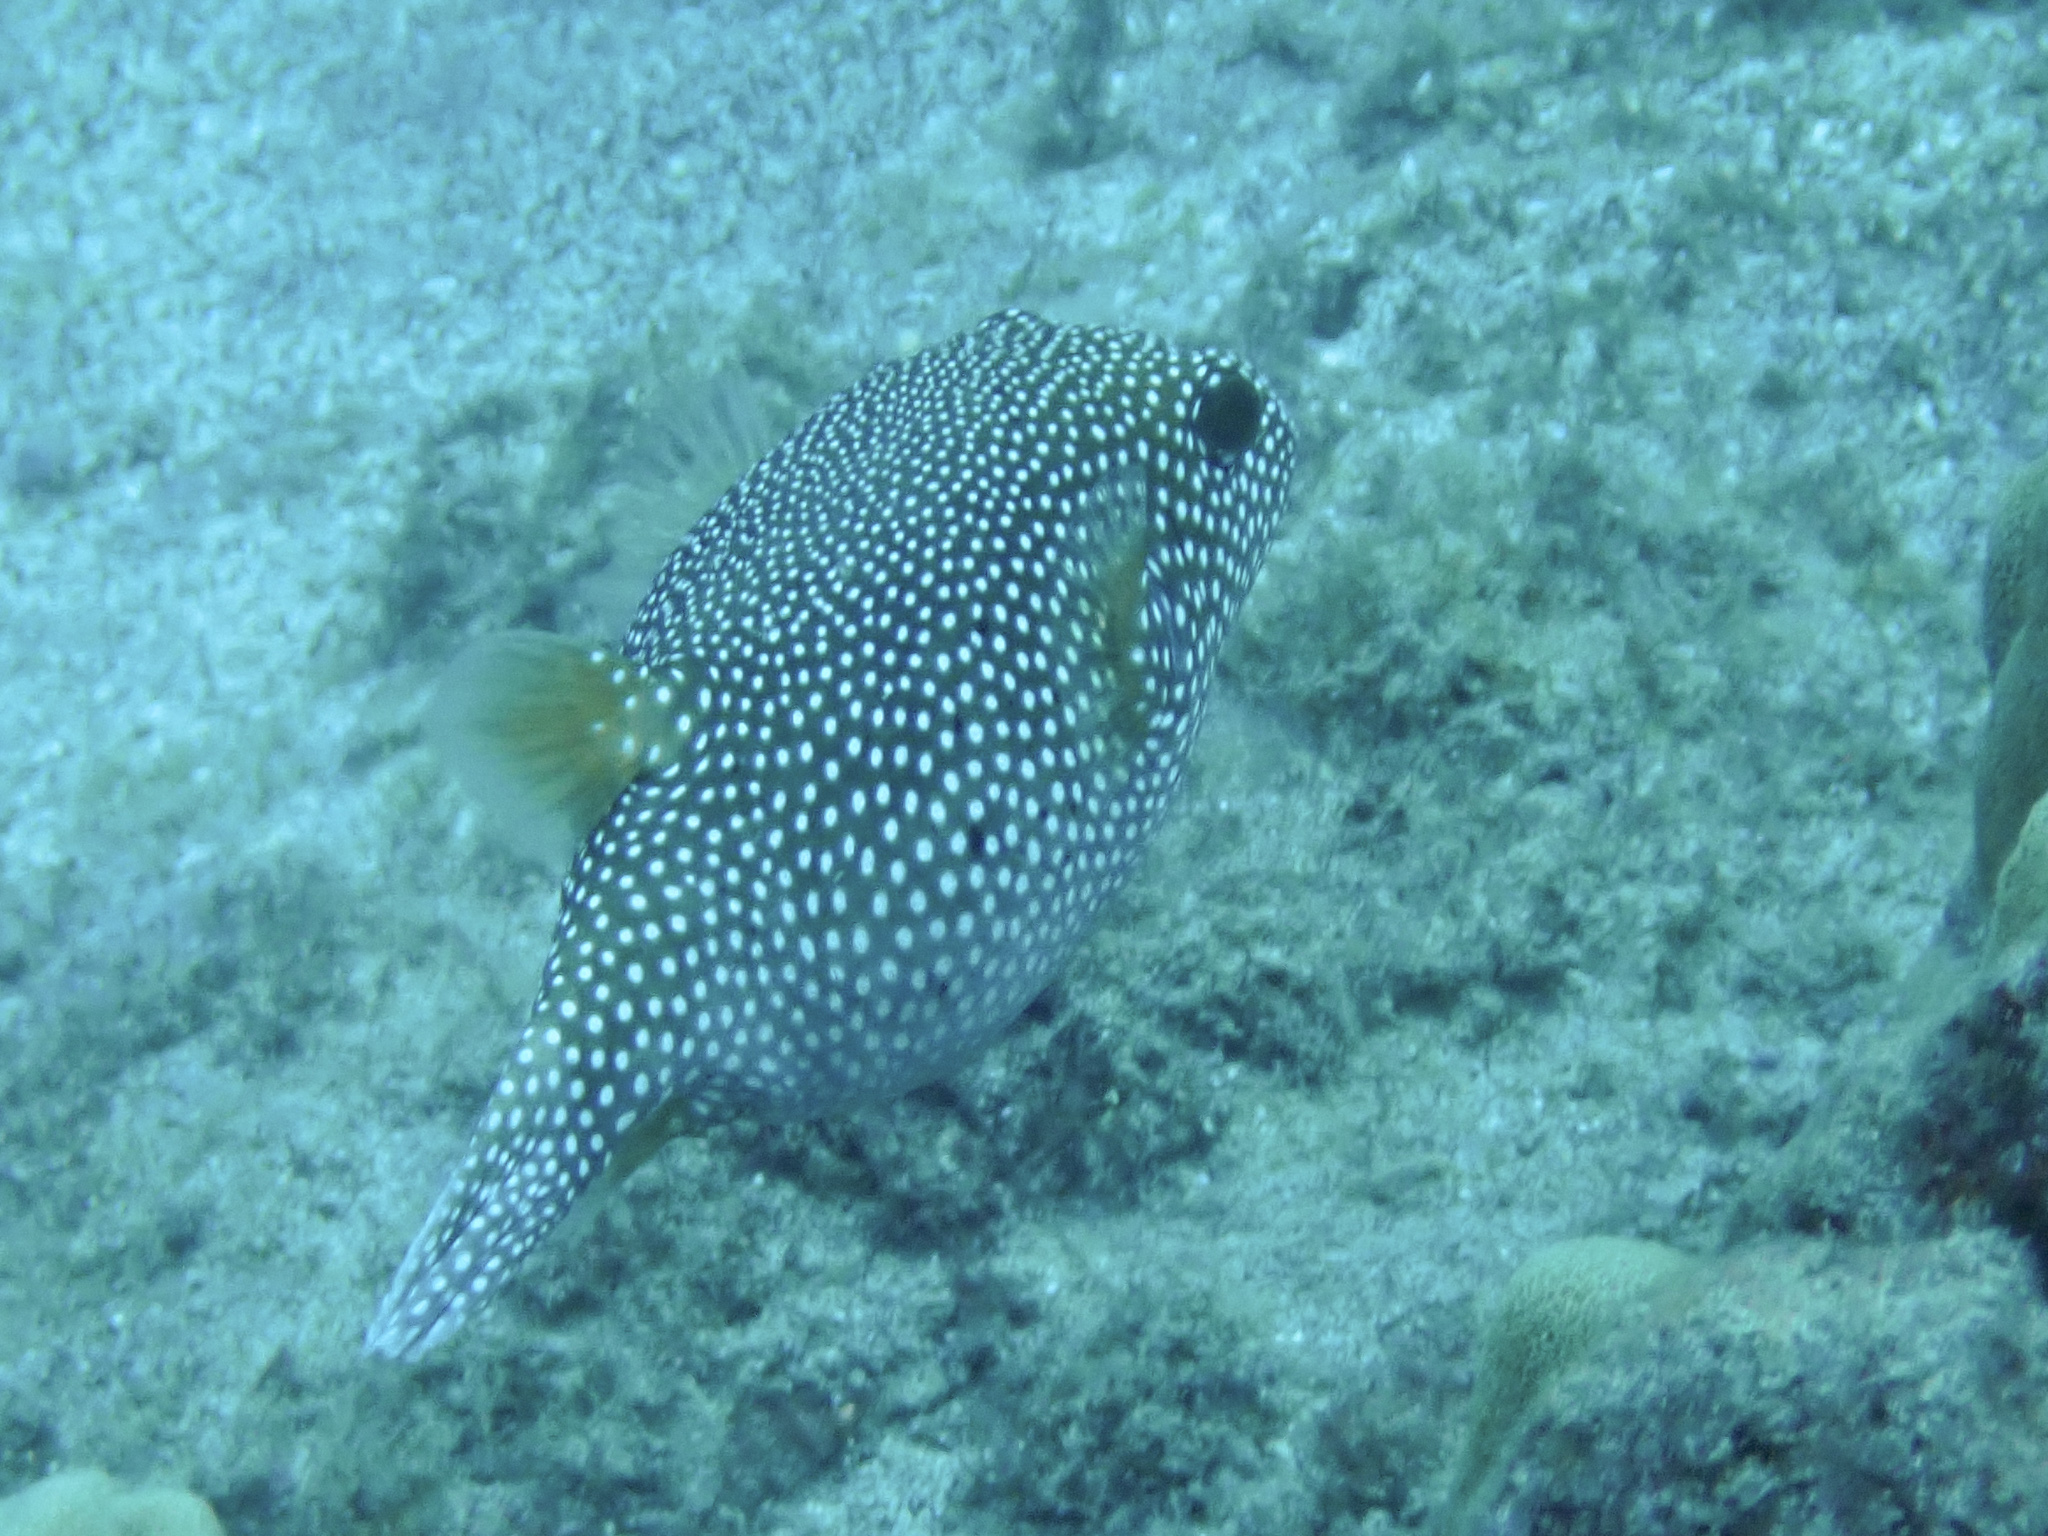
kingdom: Animalia
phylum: Chordata
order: Tetraodontiformes
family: Tetraodontidae
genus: Arothron
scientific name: Arothron meleagris
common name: Guinea-fowl pufferfish
